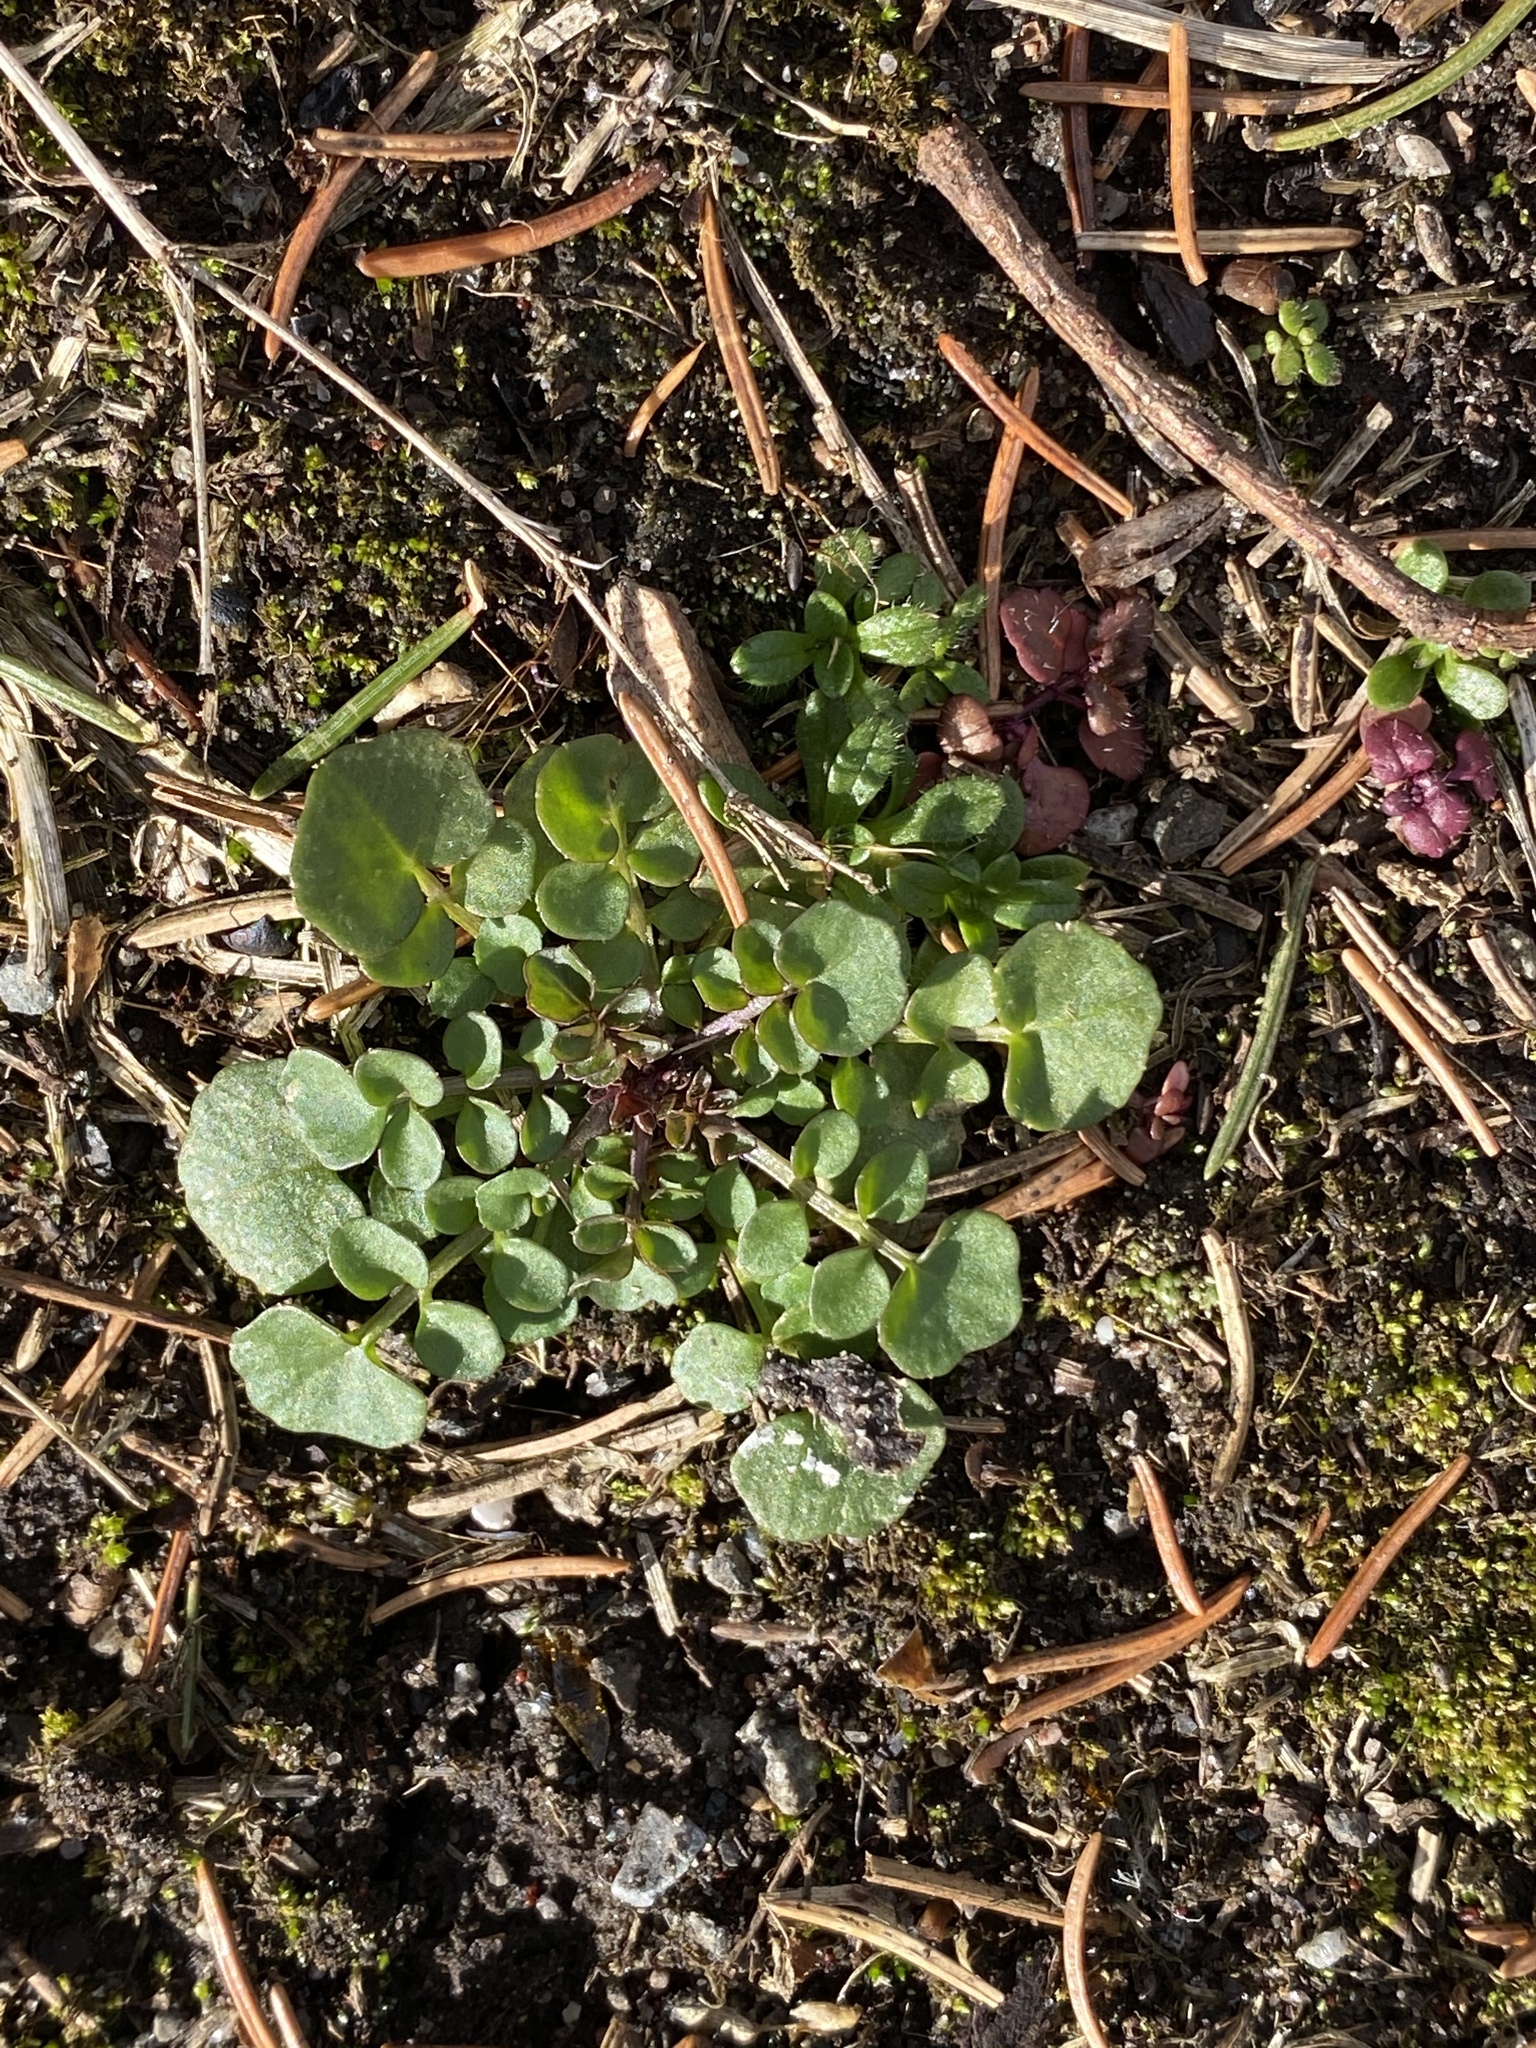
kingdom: Plantae
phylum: Tracheophyta
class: Magnoliopsida
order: Brassicales
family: Brassicaceae
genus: Cardamine
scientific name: Cardamine hirsuta
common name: Hairy bittercress
